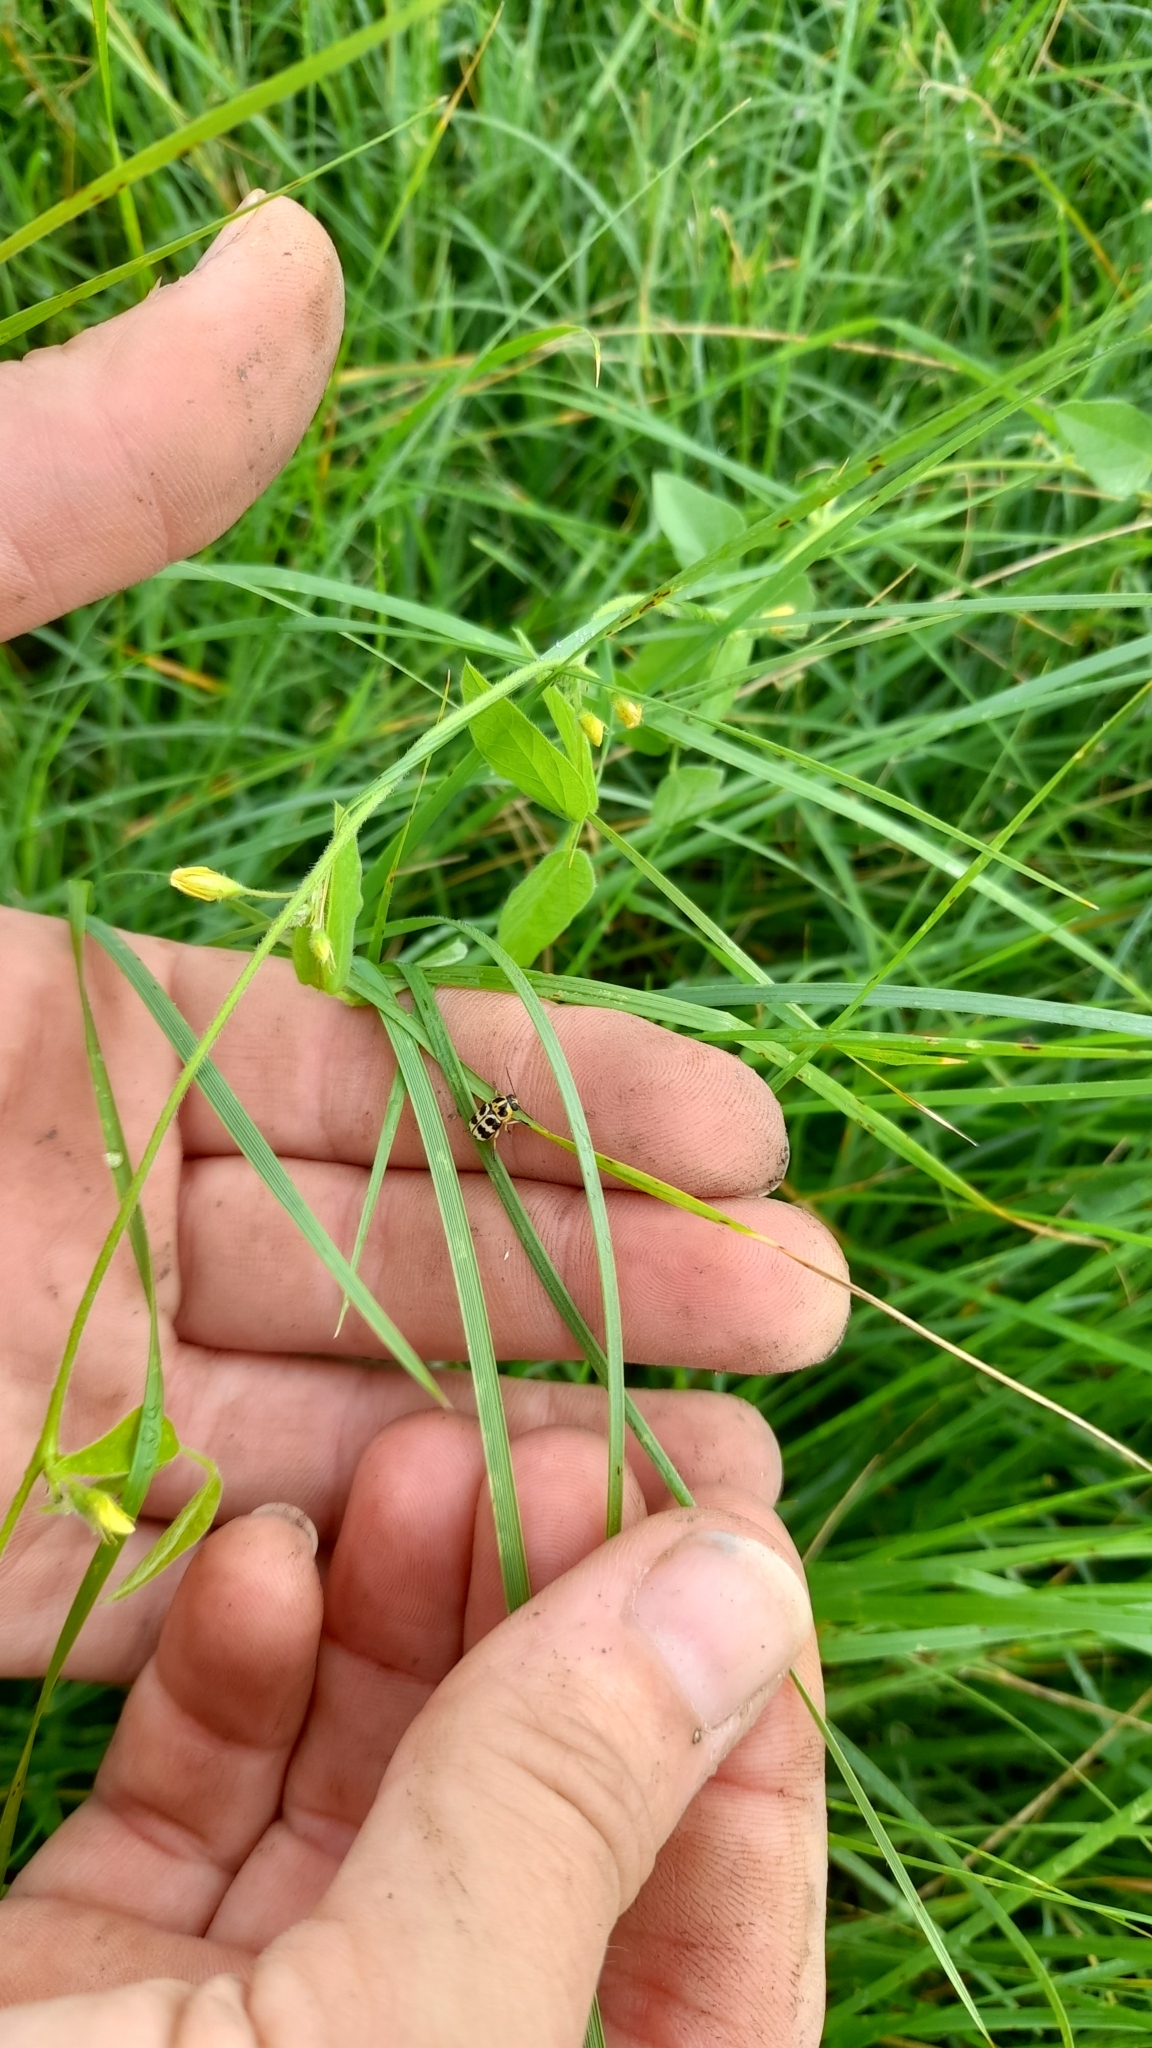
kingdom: Animalia
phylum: Arthropoda
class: Insecta
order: Coleoptera
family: Chrysomelidae
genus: Metallactus
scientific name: Metallactus rileyi
